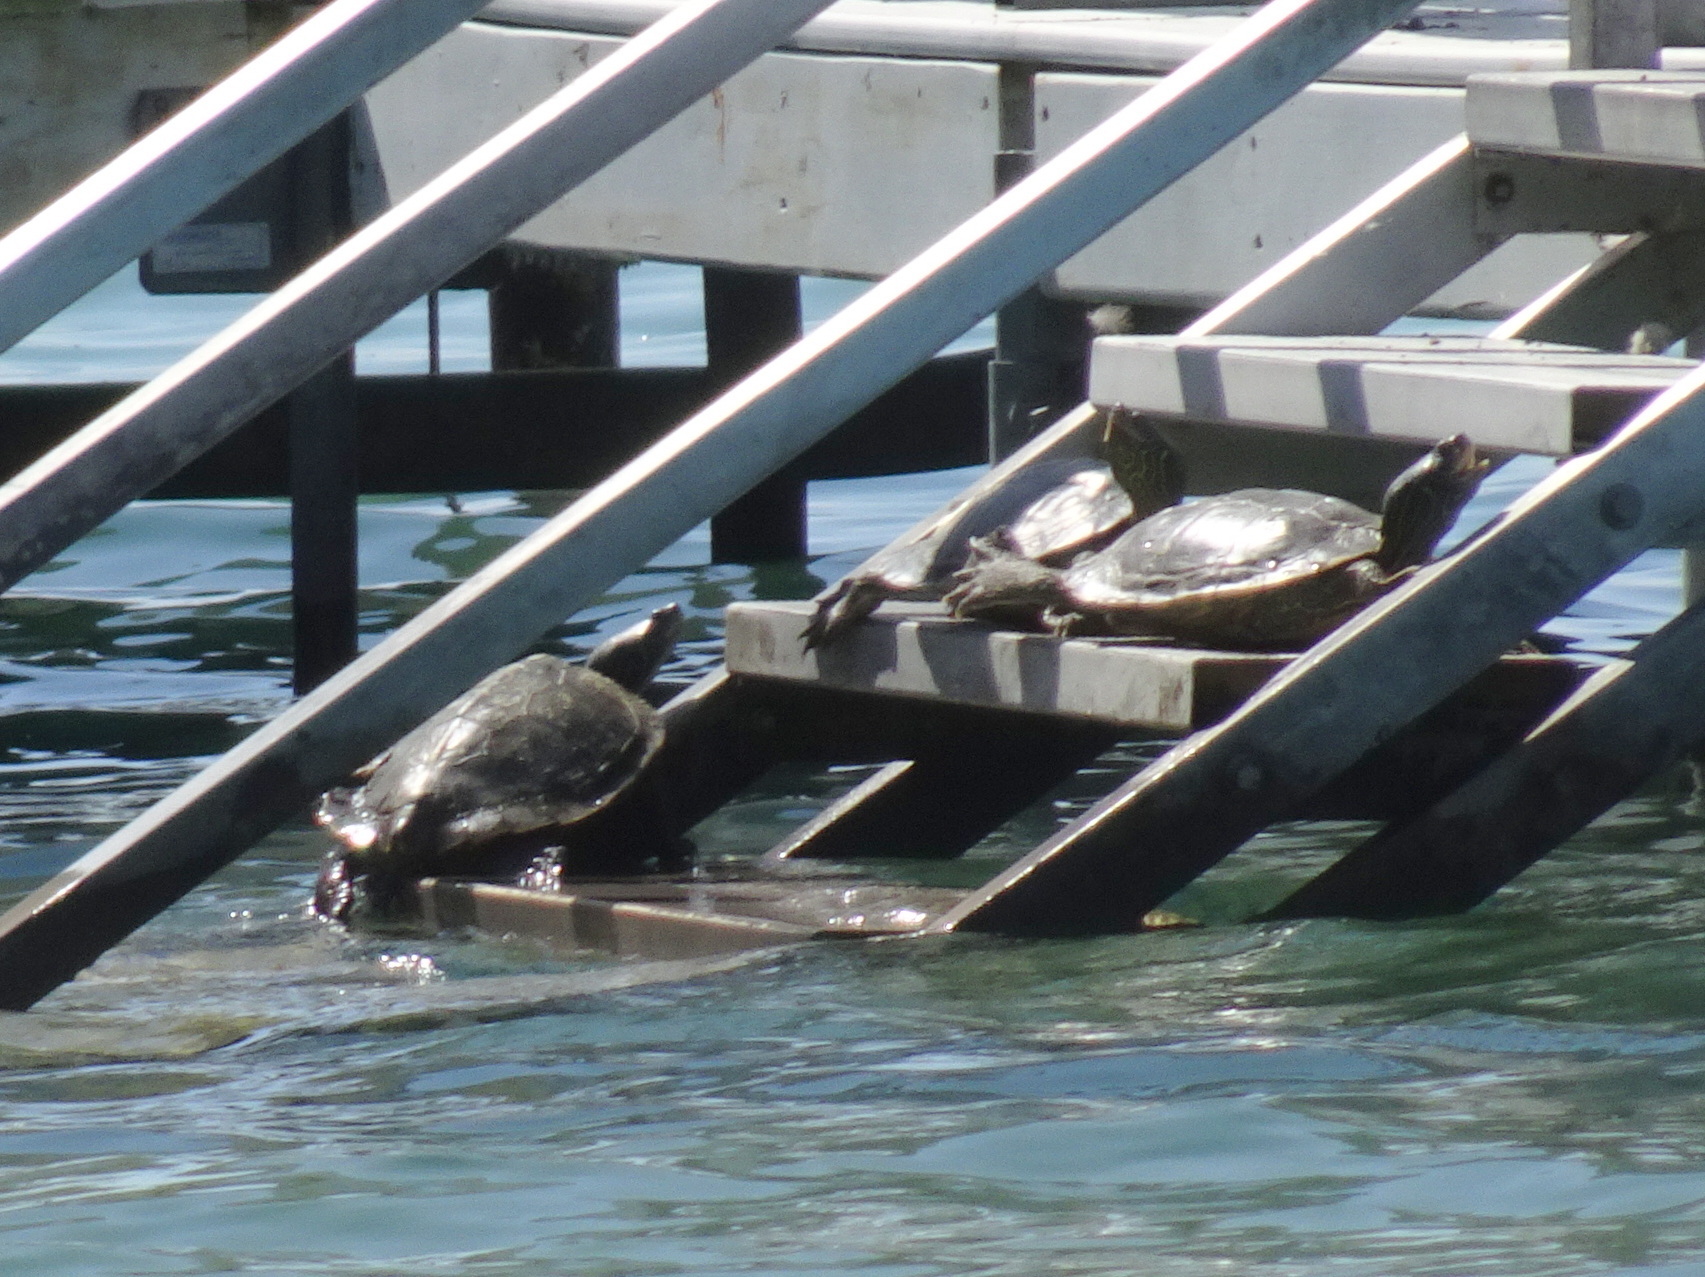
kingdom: Animalia
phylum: Chordata
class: Testudines
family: Emydidae
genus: Graptemys
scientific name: Graptemys geographica
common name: Common map turtle
